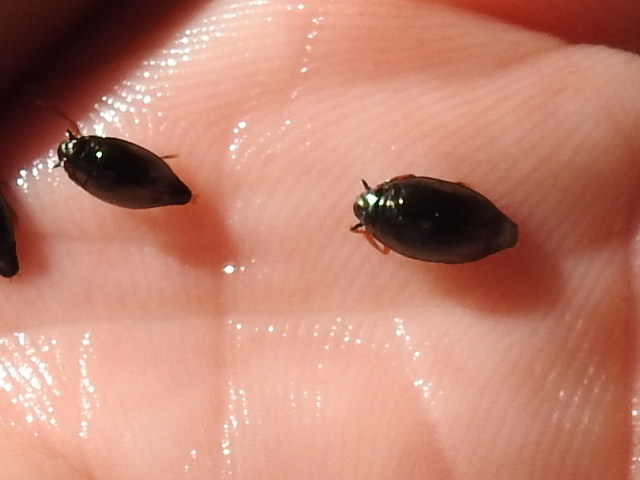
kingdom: Animalia
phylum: Arthropoda
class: Insecta
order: Coleoptera
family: Gyrinidae
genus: Gyrinus
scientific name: Gyrinus
